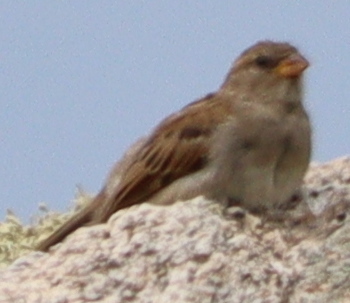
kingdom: Animalia
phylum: Chordata
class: Aves
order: Passeriformes
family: Passeridae
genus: Passer
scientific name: Passer domesticus
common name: House sparrow
